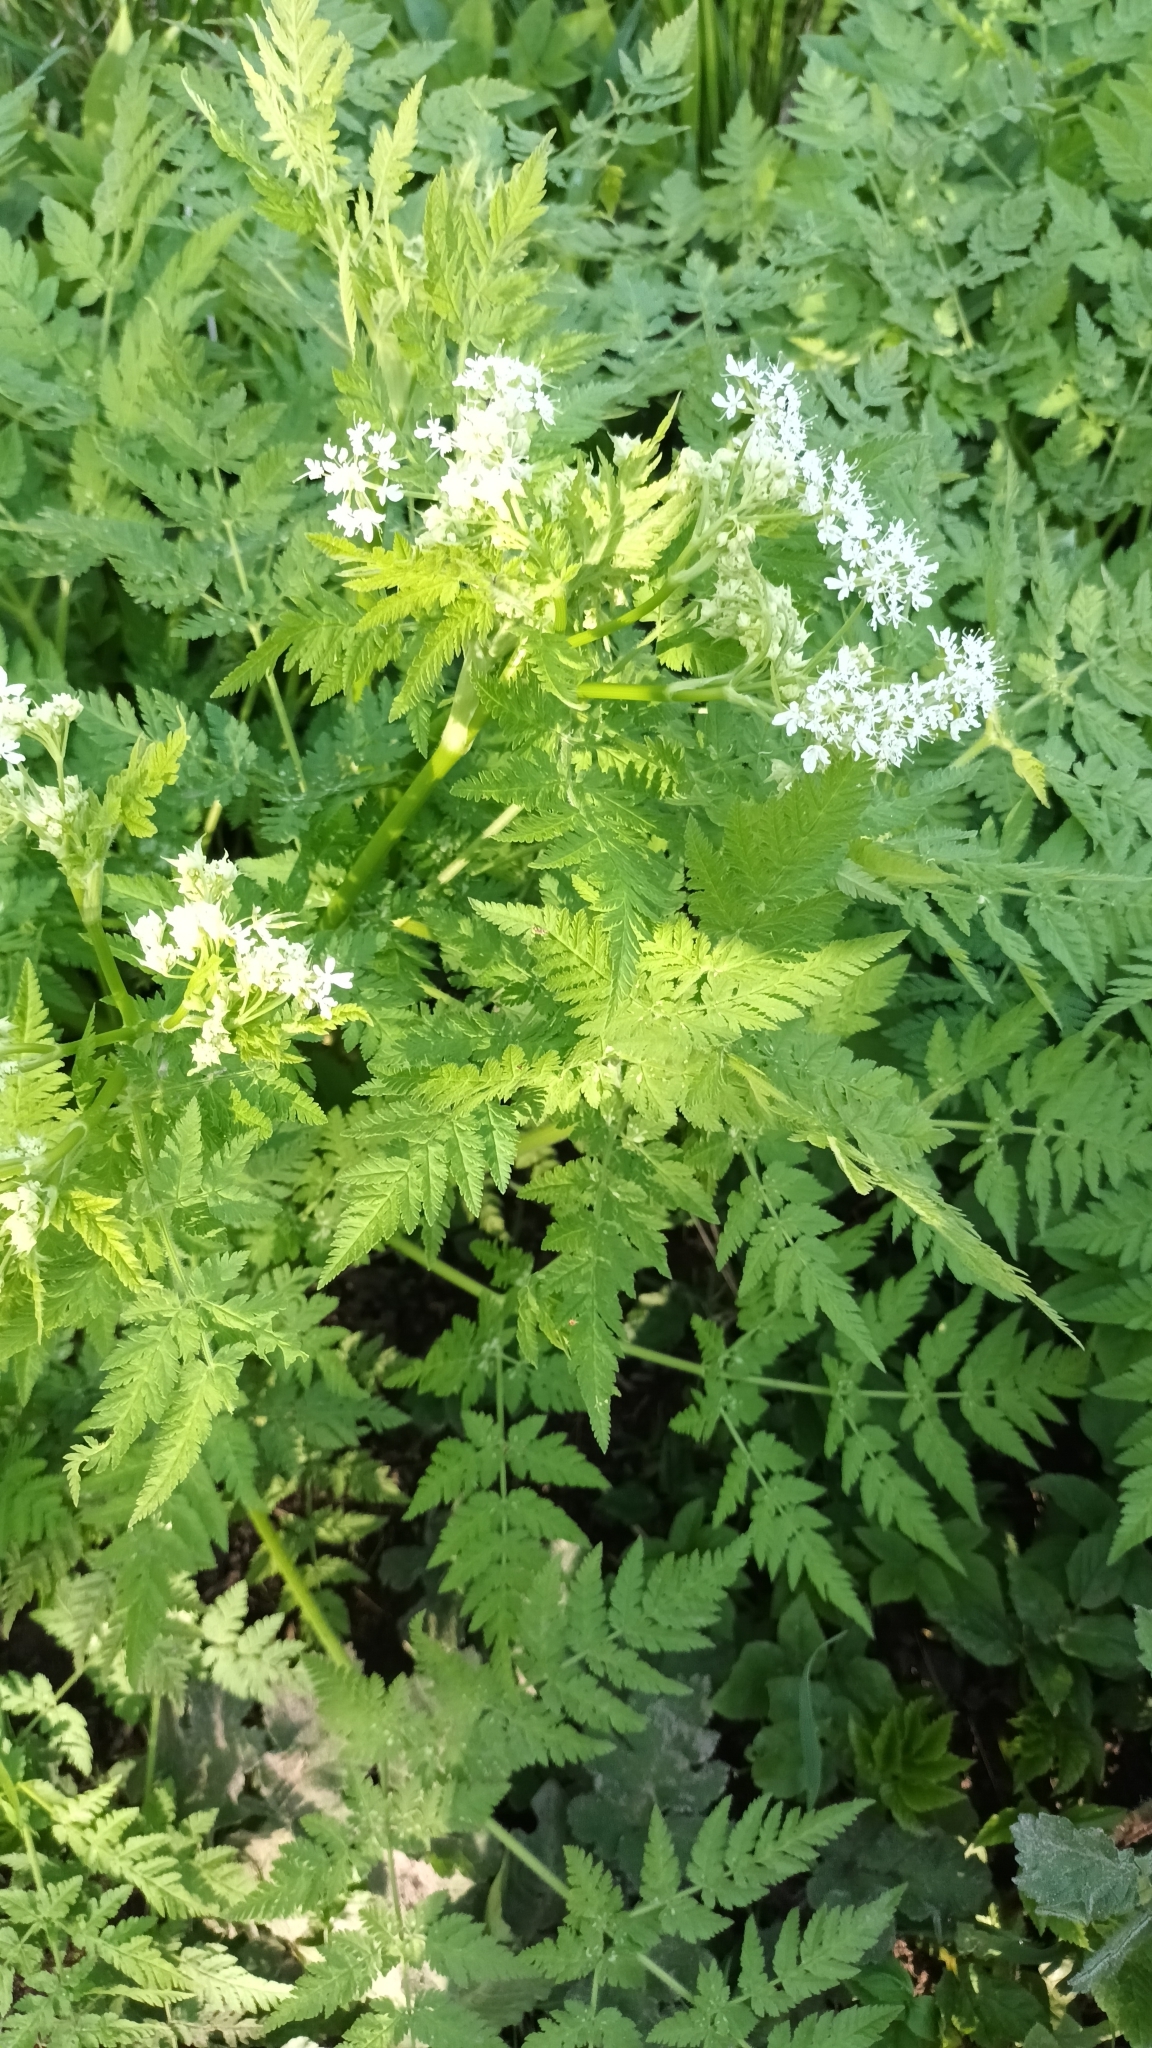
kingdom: Plantae
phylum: Tracheophyta
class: Magnoliopsida
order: Apiales
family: Apiaceae
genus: Myrrhis
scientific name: Myrrhis odorata
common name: Sweet cicely
